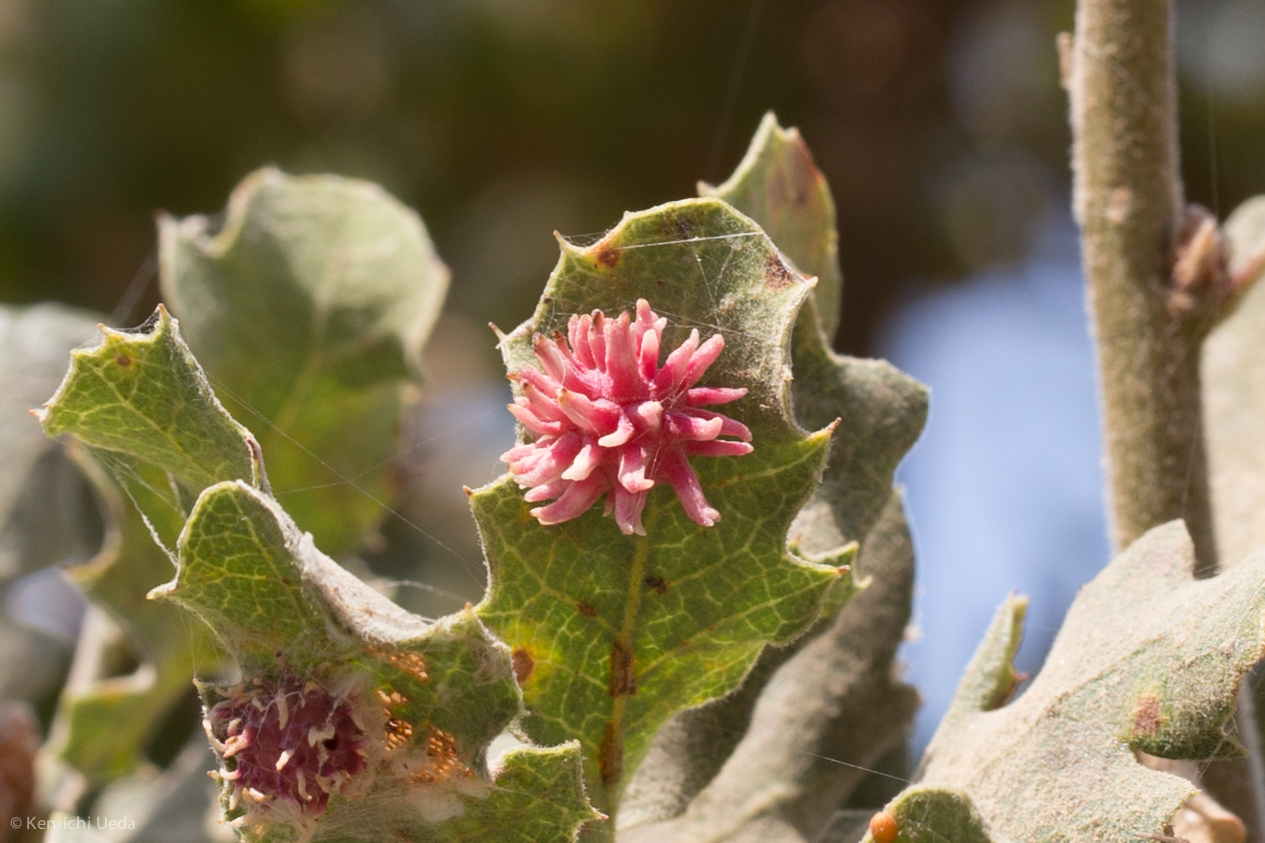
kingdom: Animalia
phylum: Arthropoda
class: Insecta
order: Hymenoptera
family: Cynipidae
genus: Cynips
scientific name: Cynips
